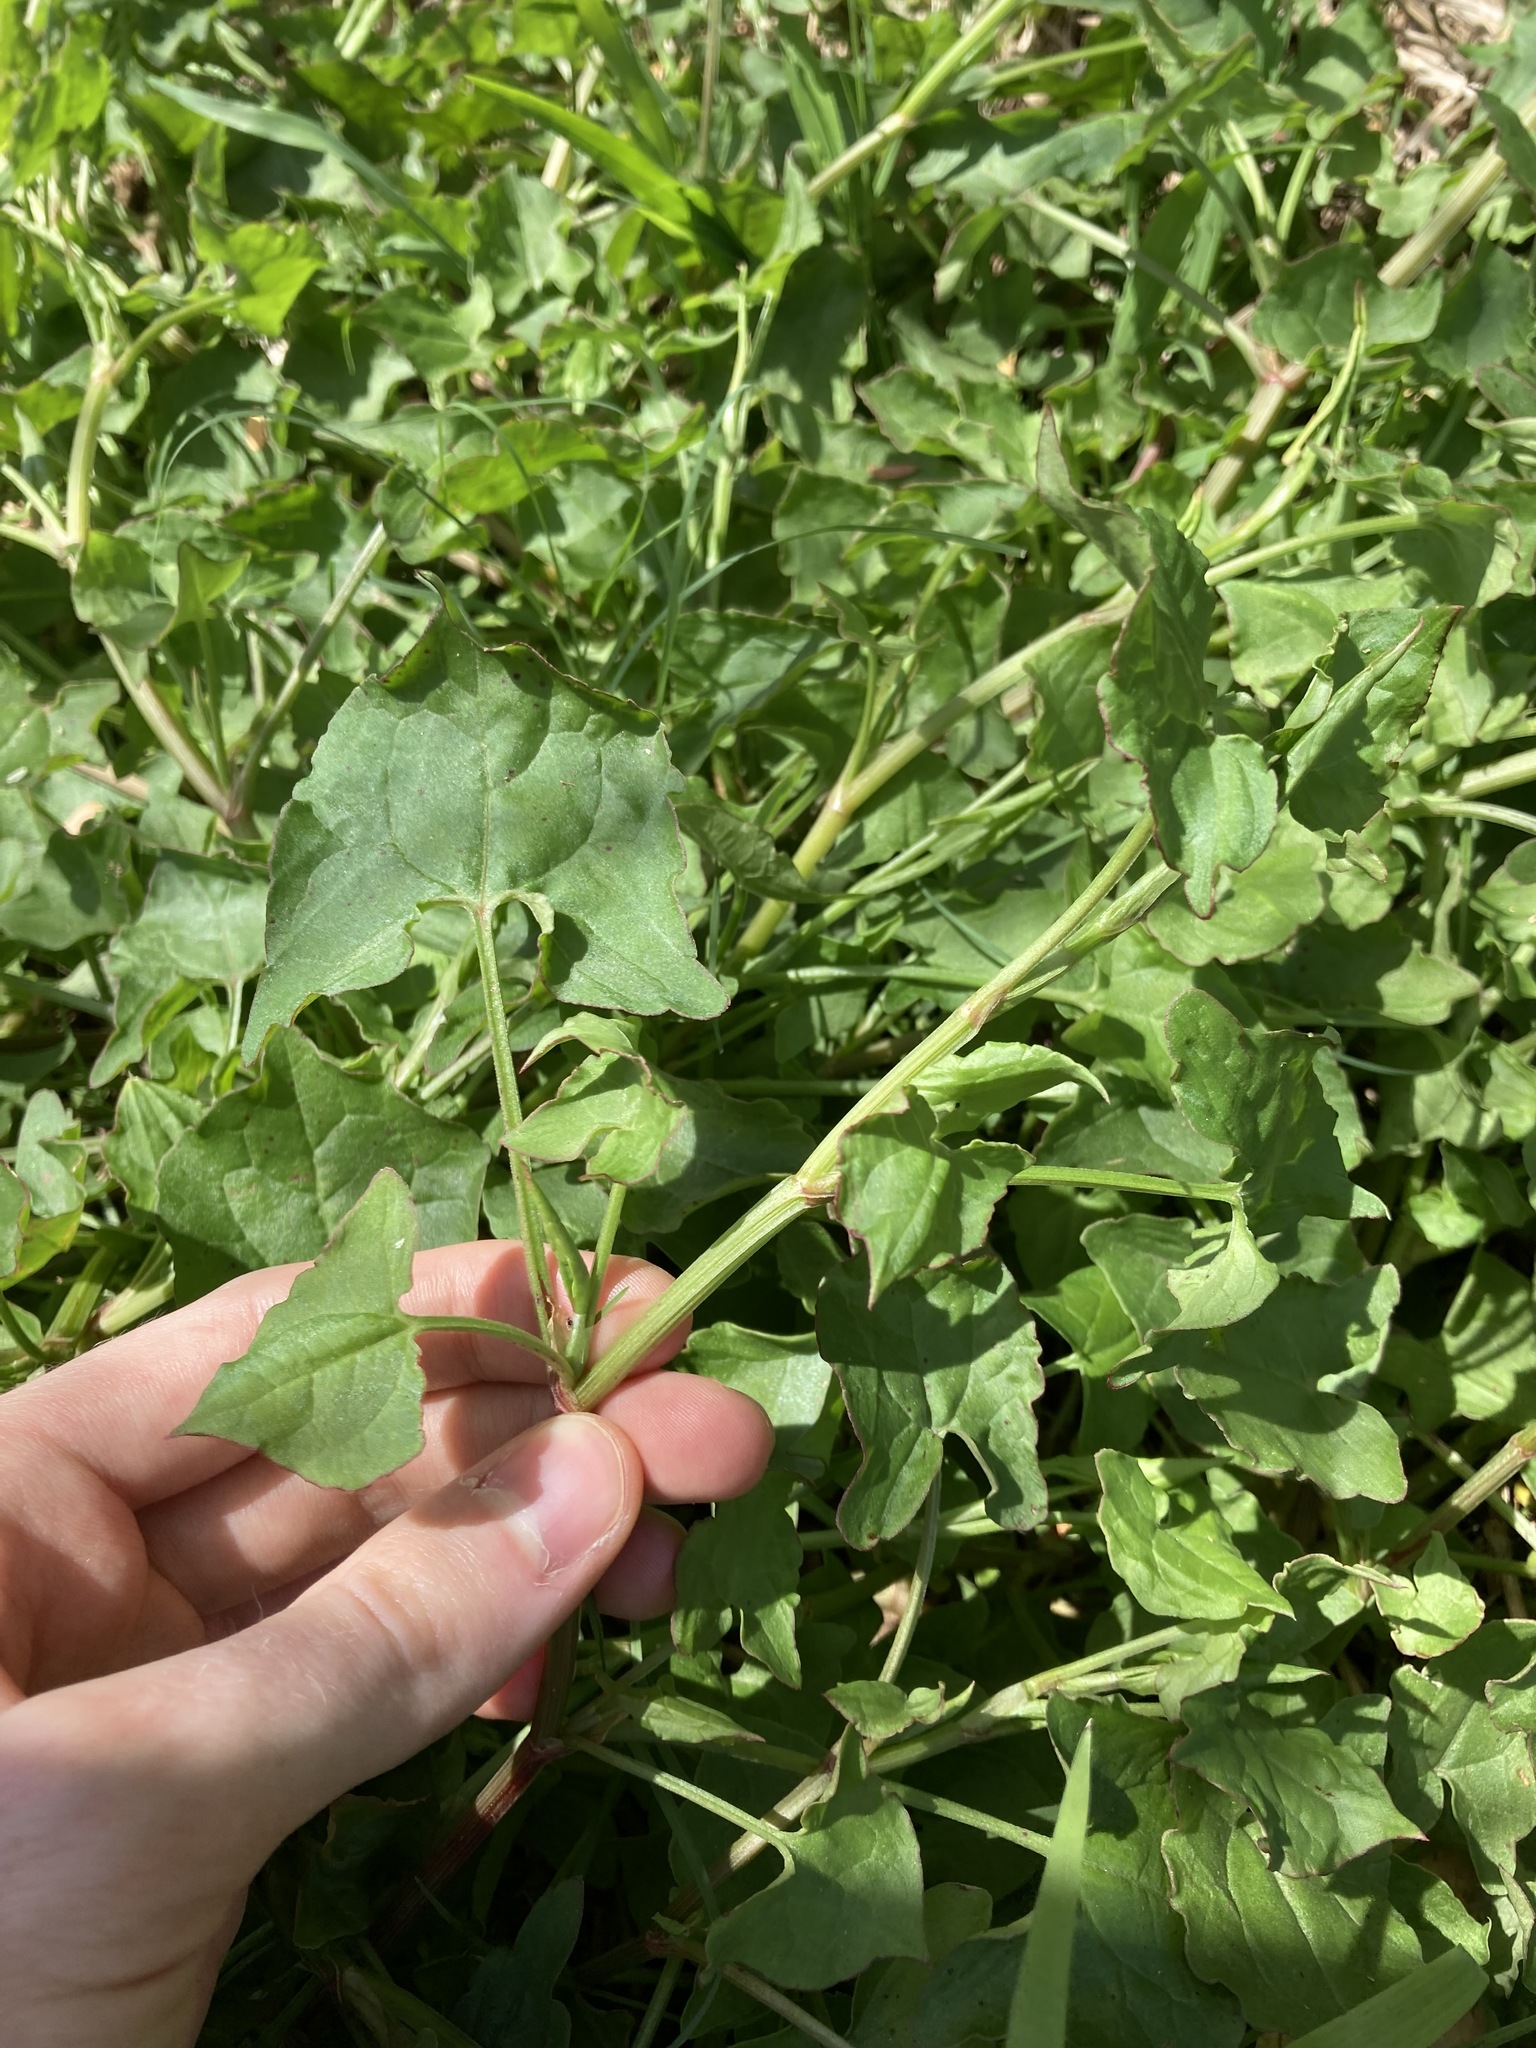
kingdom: Plantae
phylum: Tracheophyta
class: Magnoliopsida
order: Caryophyllales
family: Polygonaceae
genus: Rumex
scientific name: Rumex sagittatus
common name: Climbing dock
